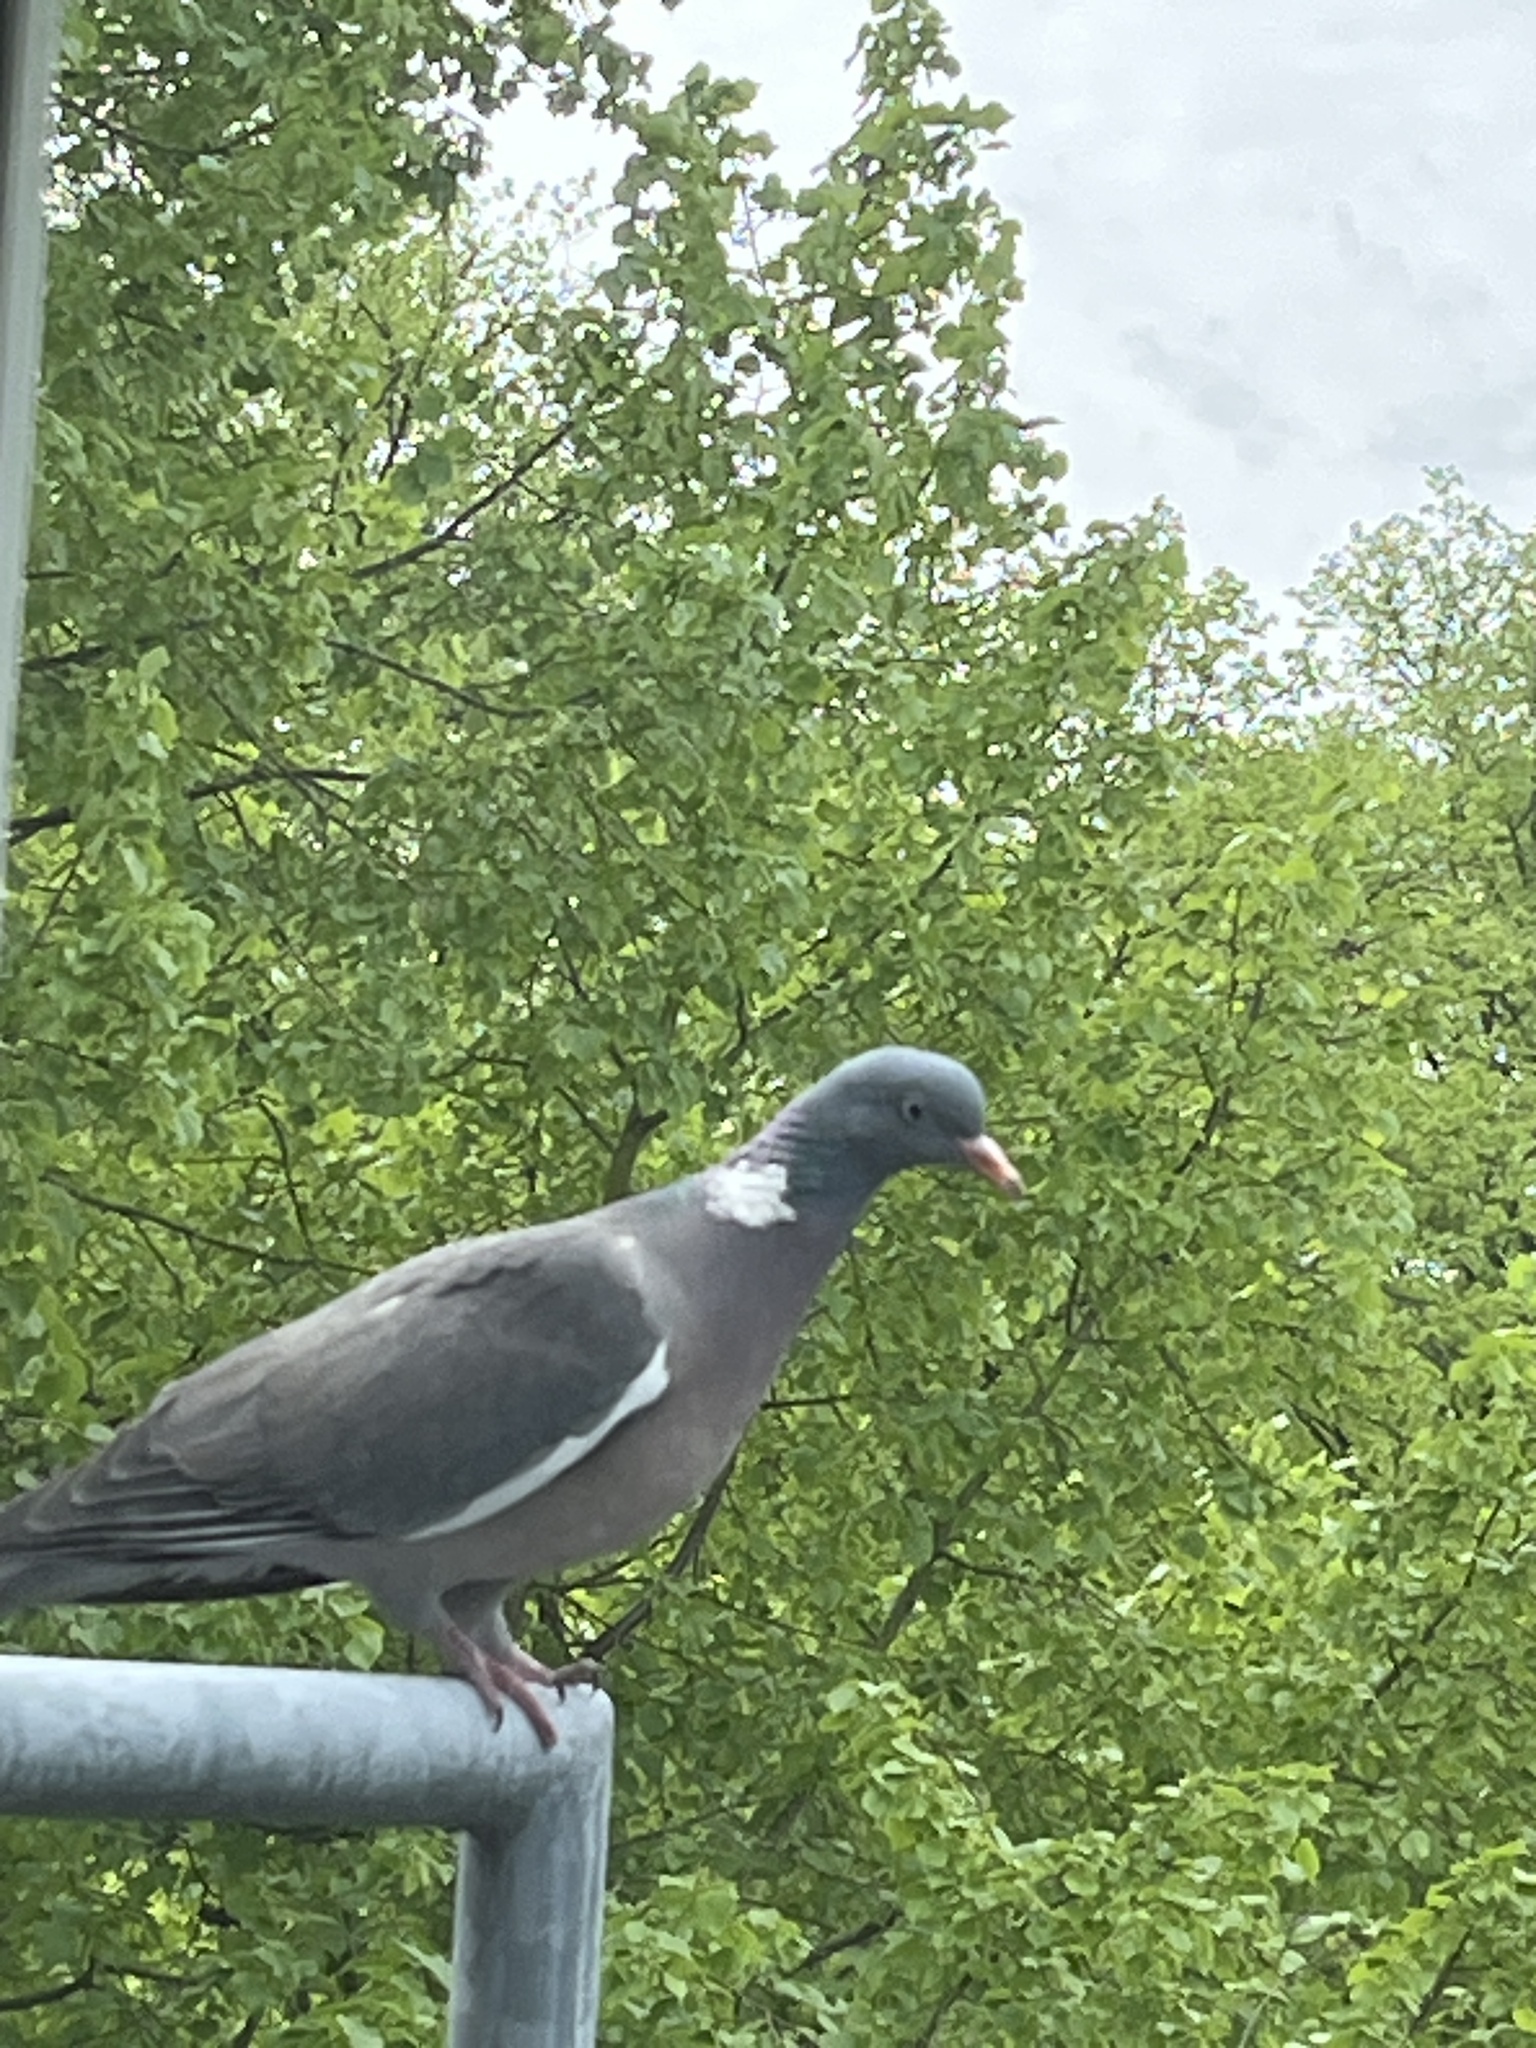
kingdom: Animalia
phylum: Chordata
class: Aves
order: Columbiformes
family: Columbidae
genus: Columba
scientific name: Columba palumbus
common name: Common wood pigeon
